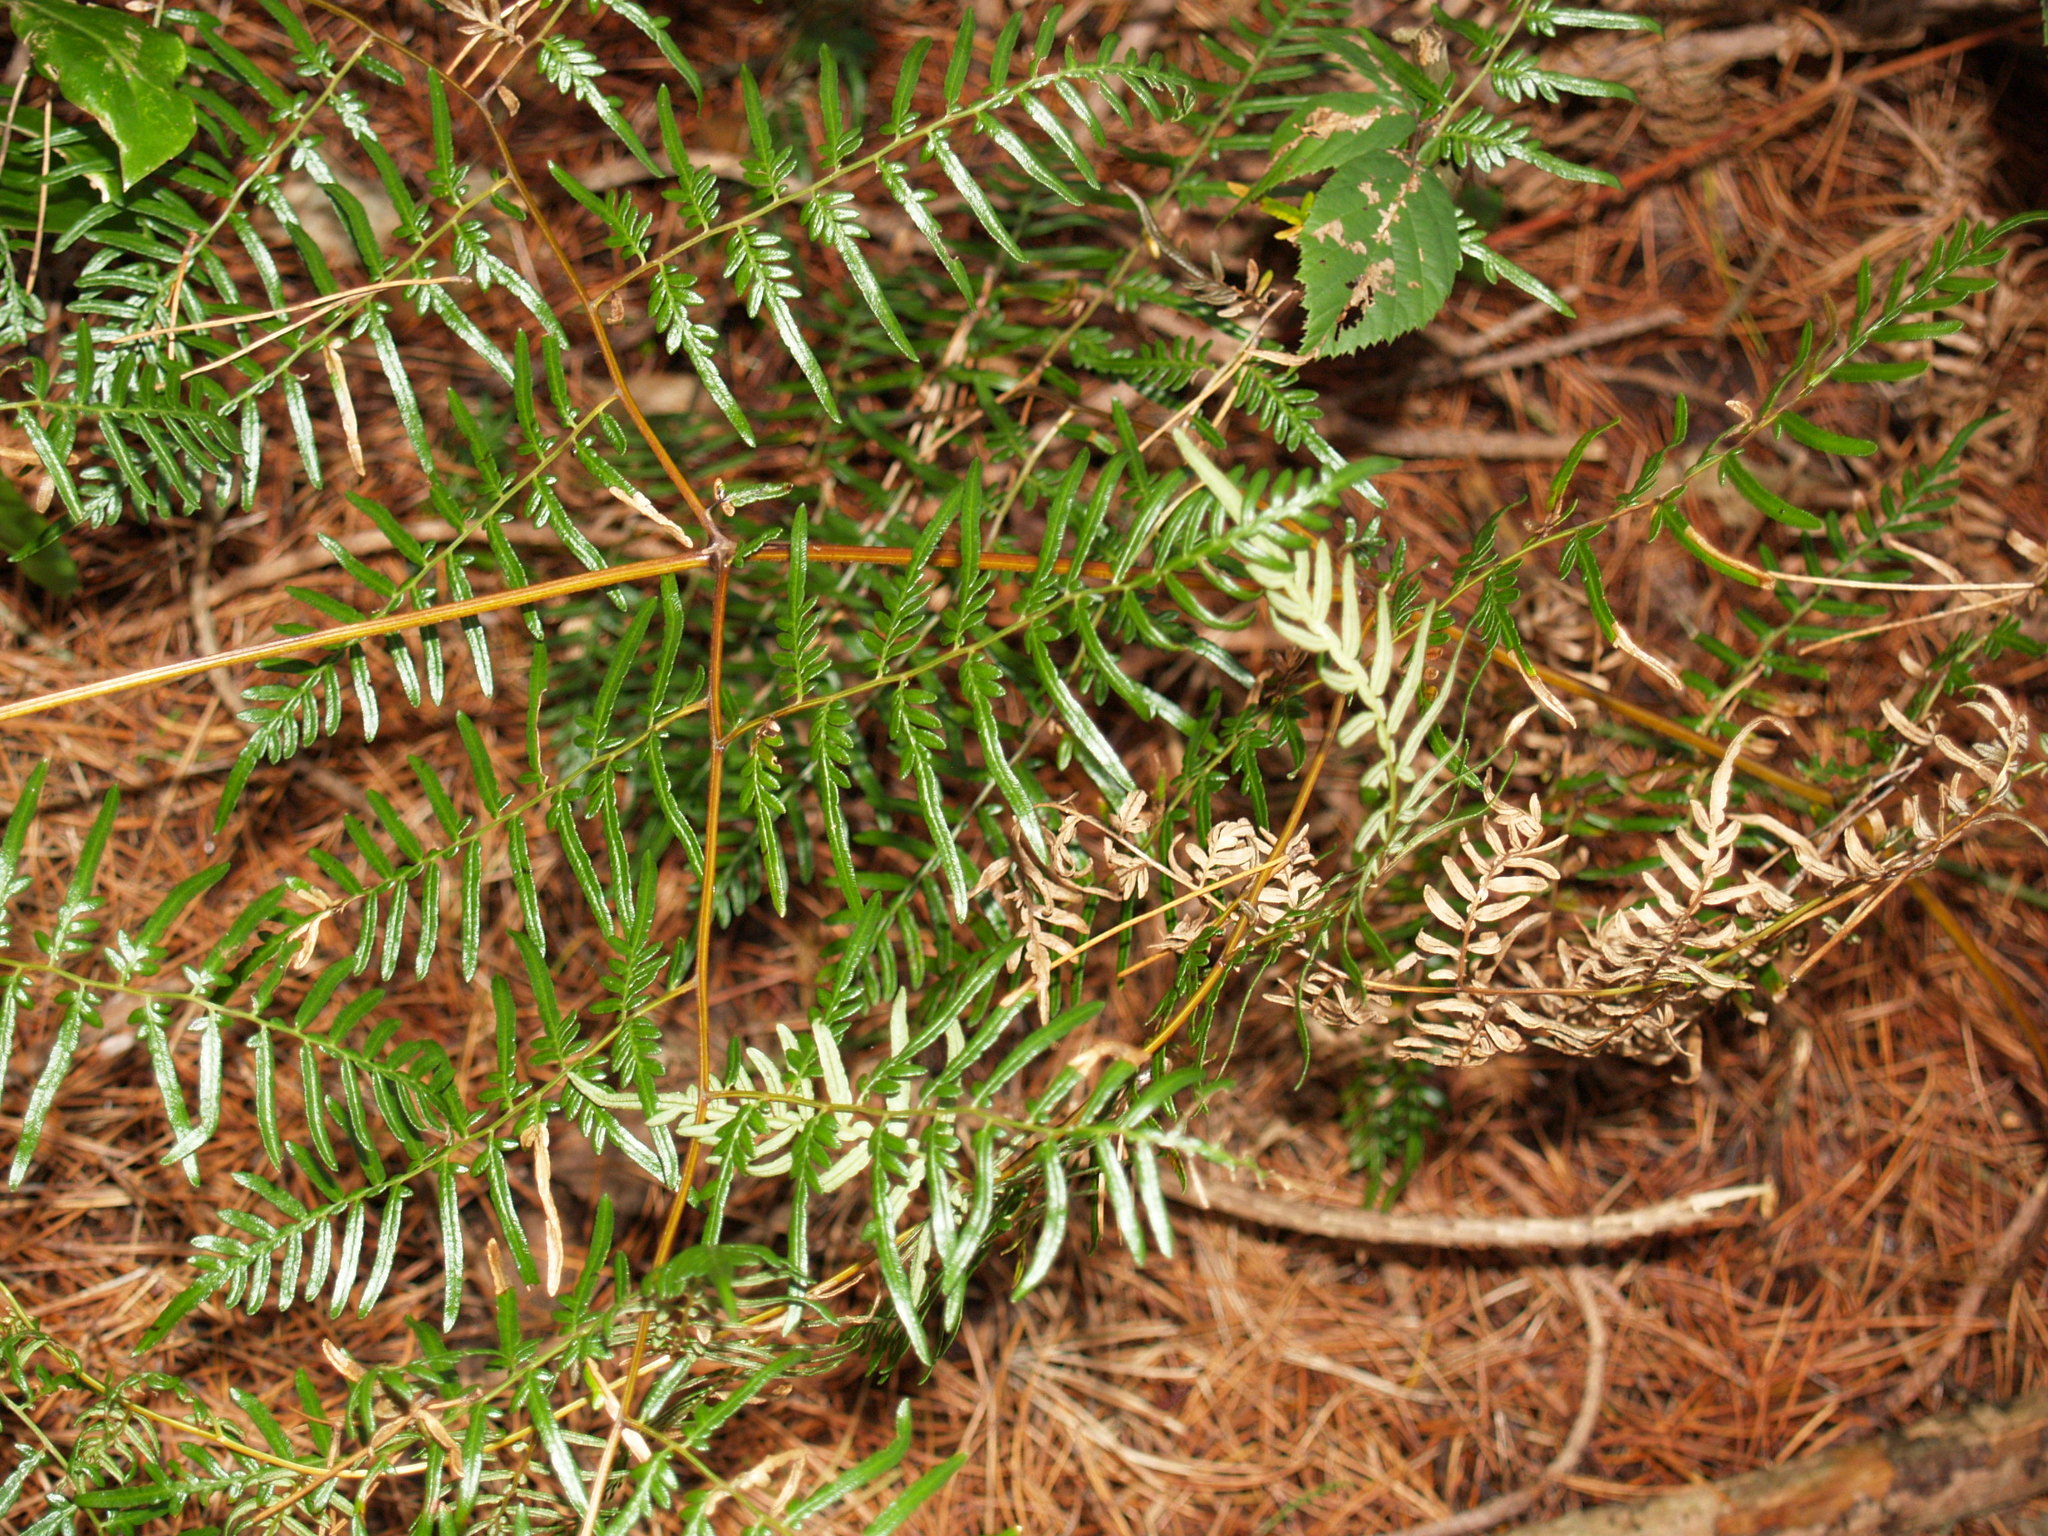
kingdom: Plantae
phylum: Tracheophyta
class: Polypodiopsida
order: Polypodiales
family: Dennstaedtiaceae
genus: Pteridium
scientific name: Pteridium esculentum
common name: Bracken fern
